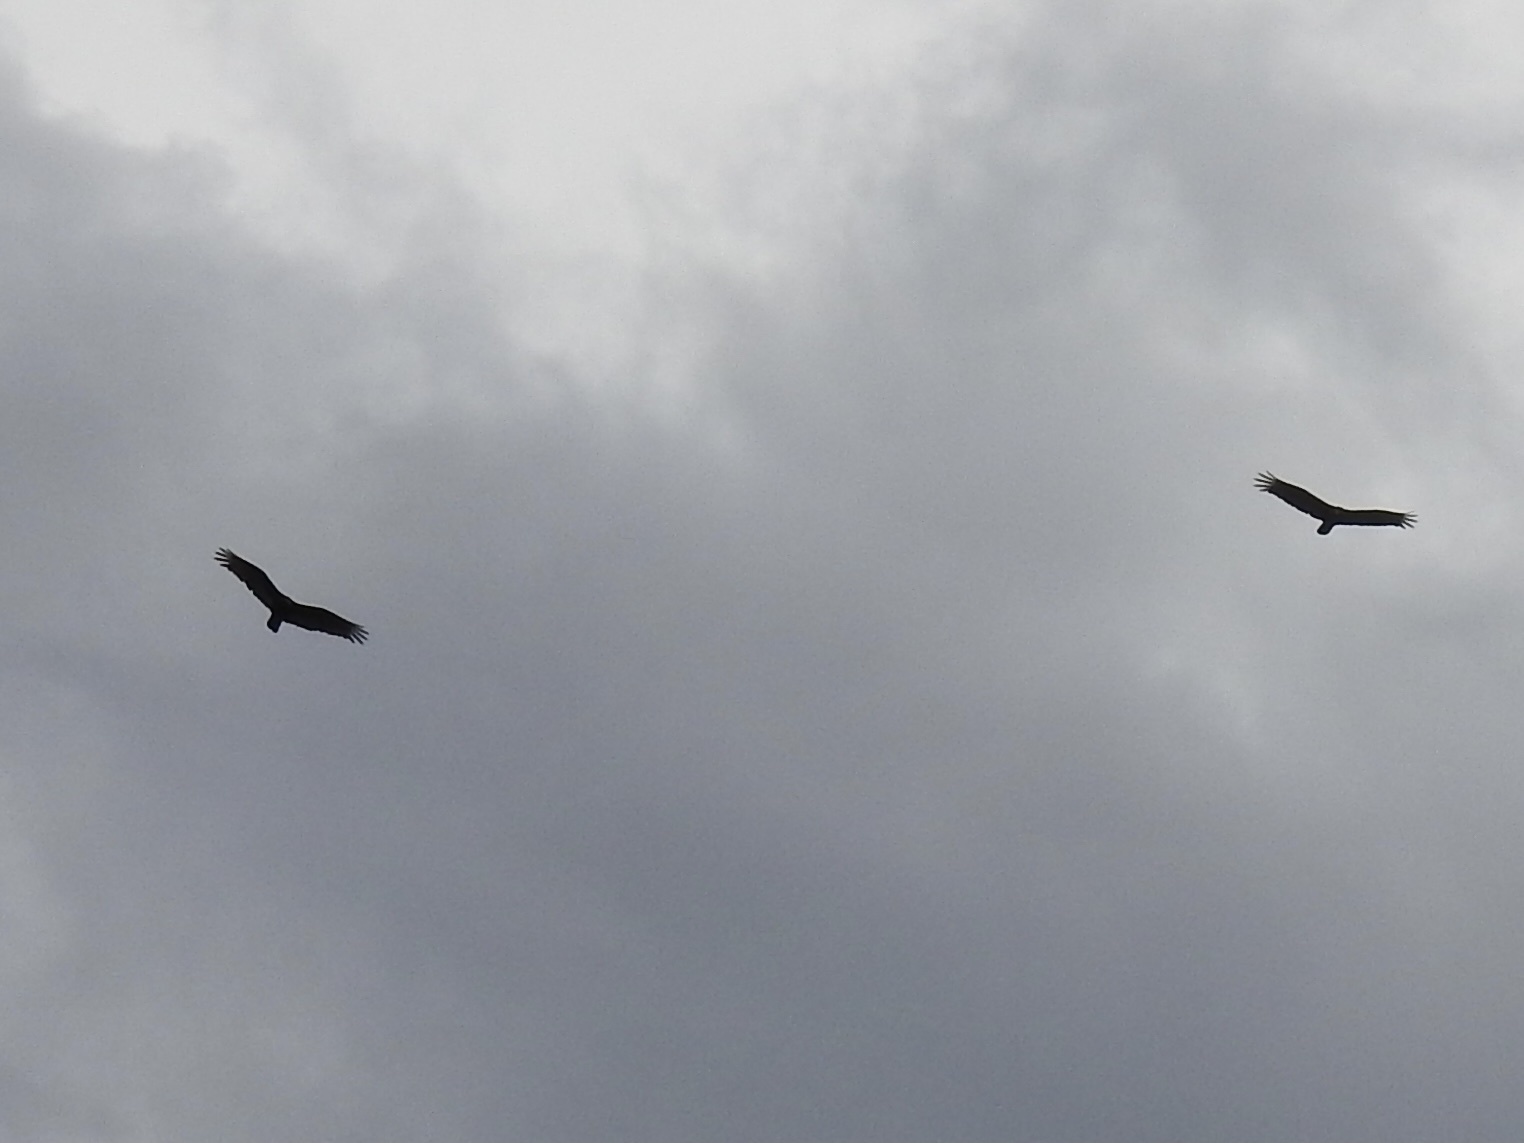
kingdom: Animalia
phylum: Chordata
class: Aves
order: Accipitriformes
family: Cathartidae
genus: Cathartes
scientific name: Cathartes aura
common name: Turkey vulture
